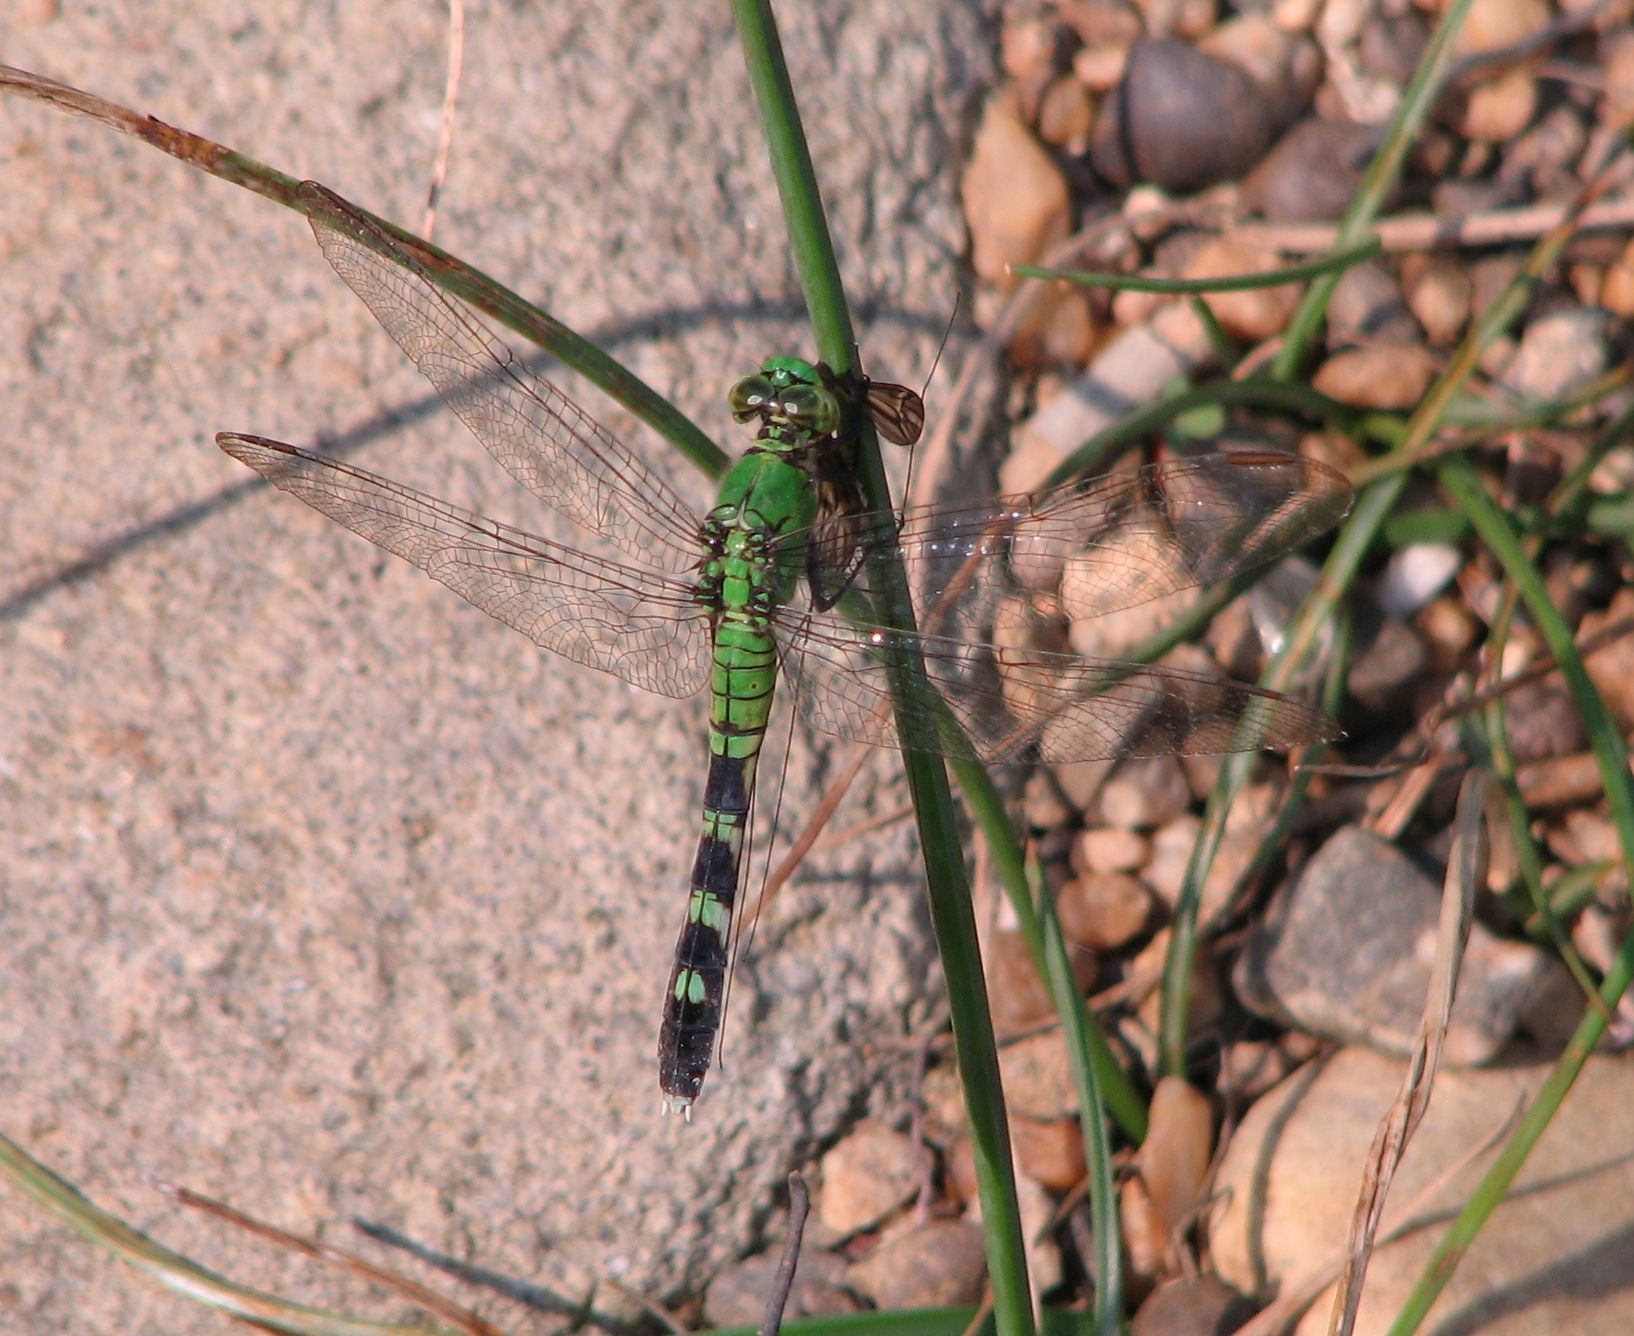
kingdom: Animalia
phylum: Arthropoda
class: Insecta
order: Odonata
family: Libellulidae
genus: Erythemis
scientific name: Erythemis simplicicollis
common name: Eastern pondhawk
